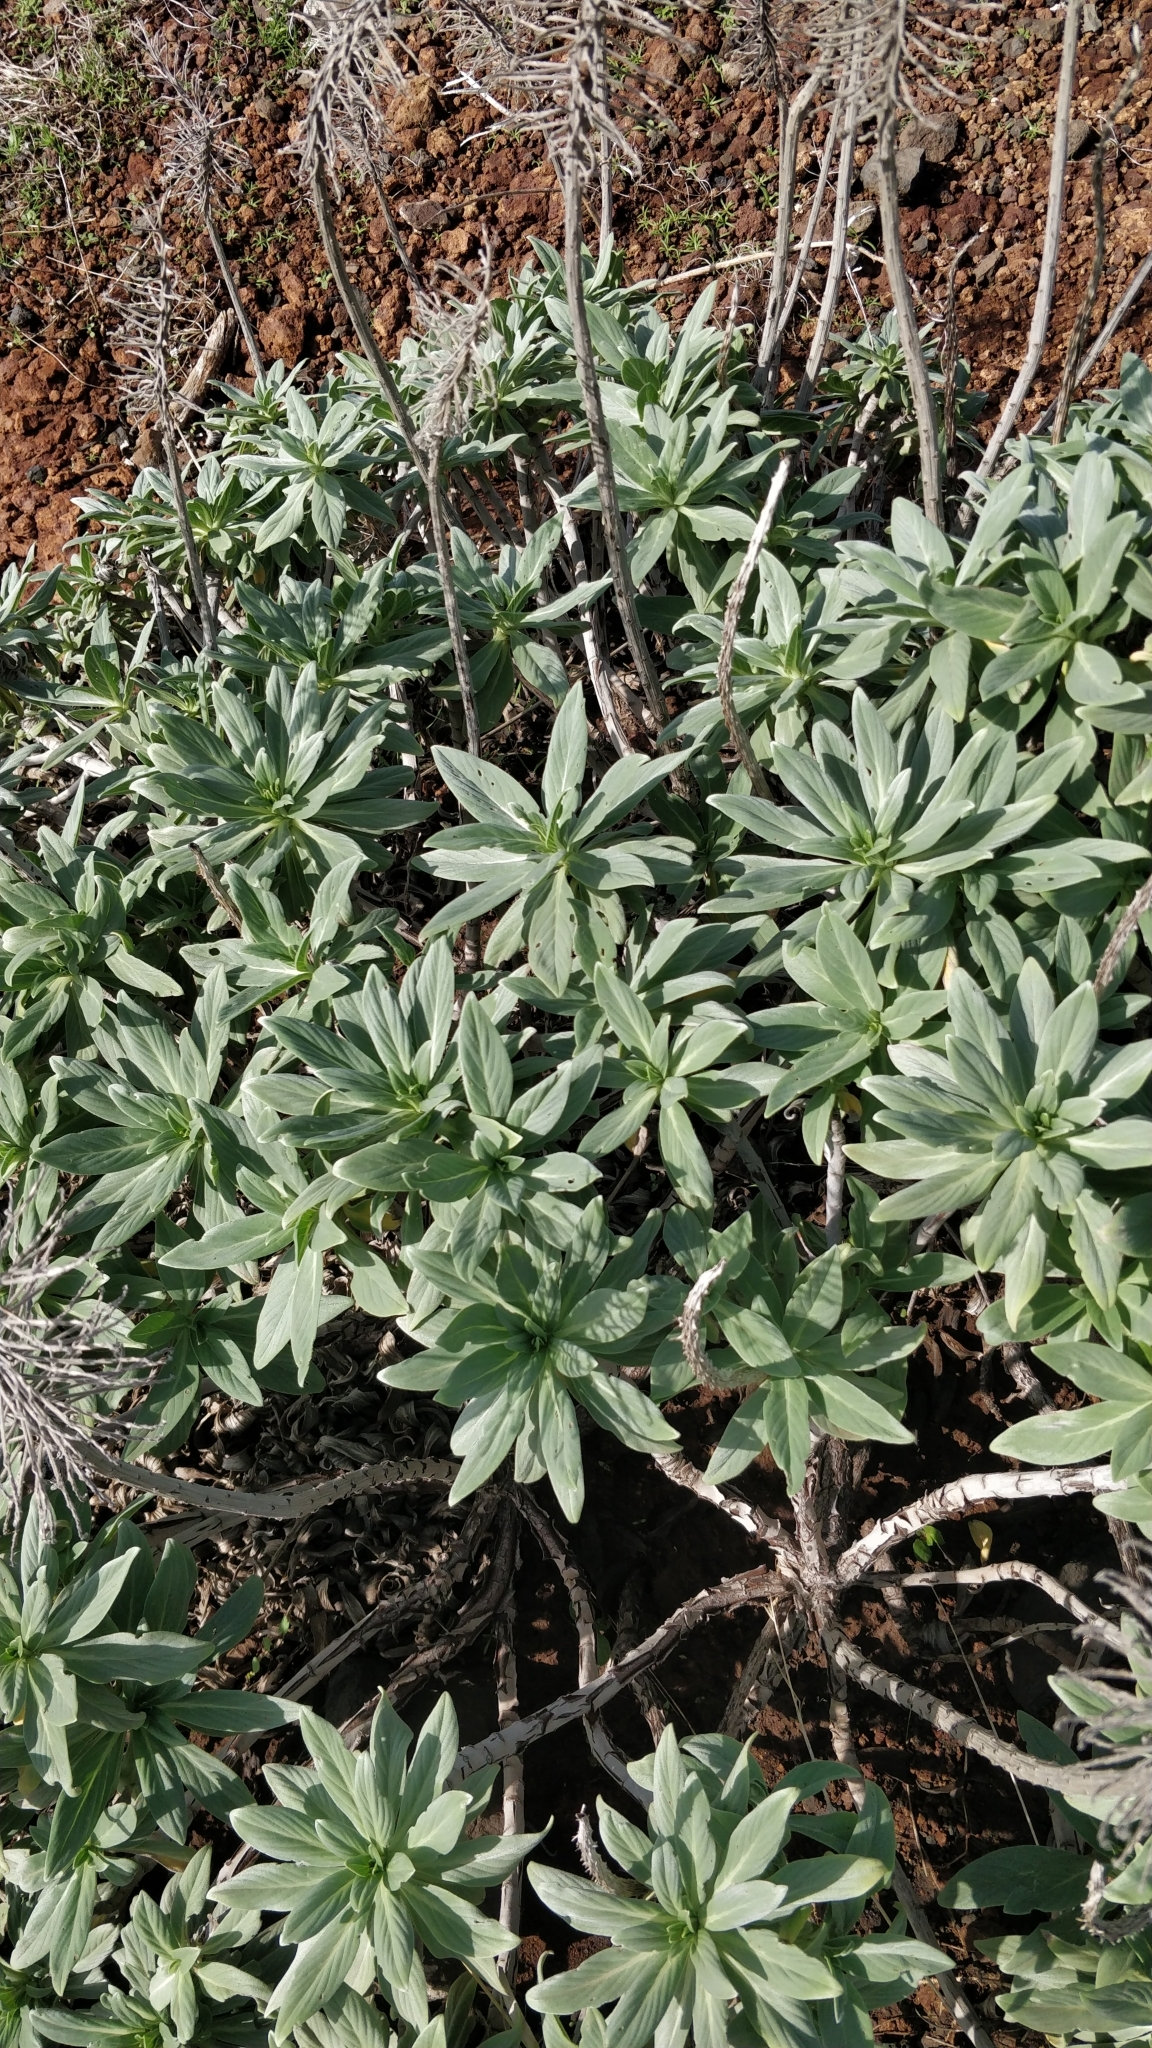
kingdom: Plantae
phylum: Tracheophyta
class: Magnoliopsida
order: Boraginales
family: Boraginaceae
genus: Echium
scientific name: Echium nervosum
